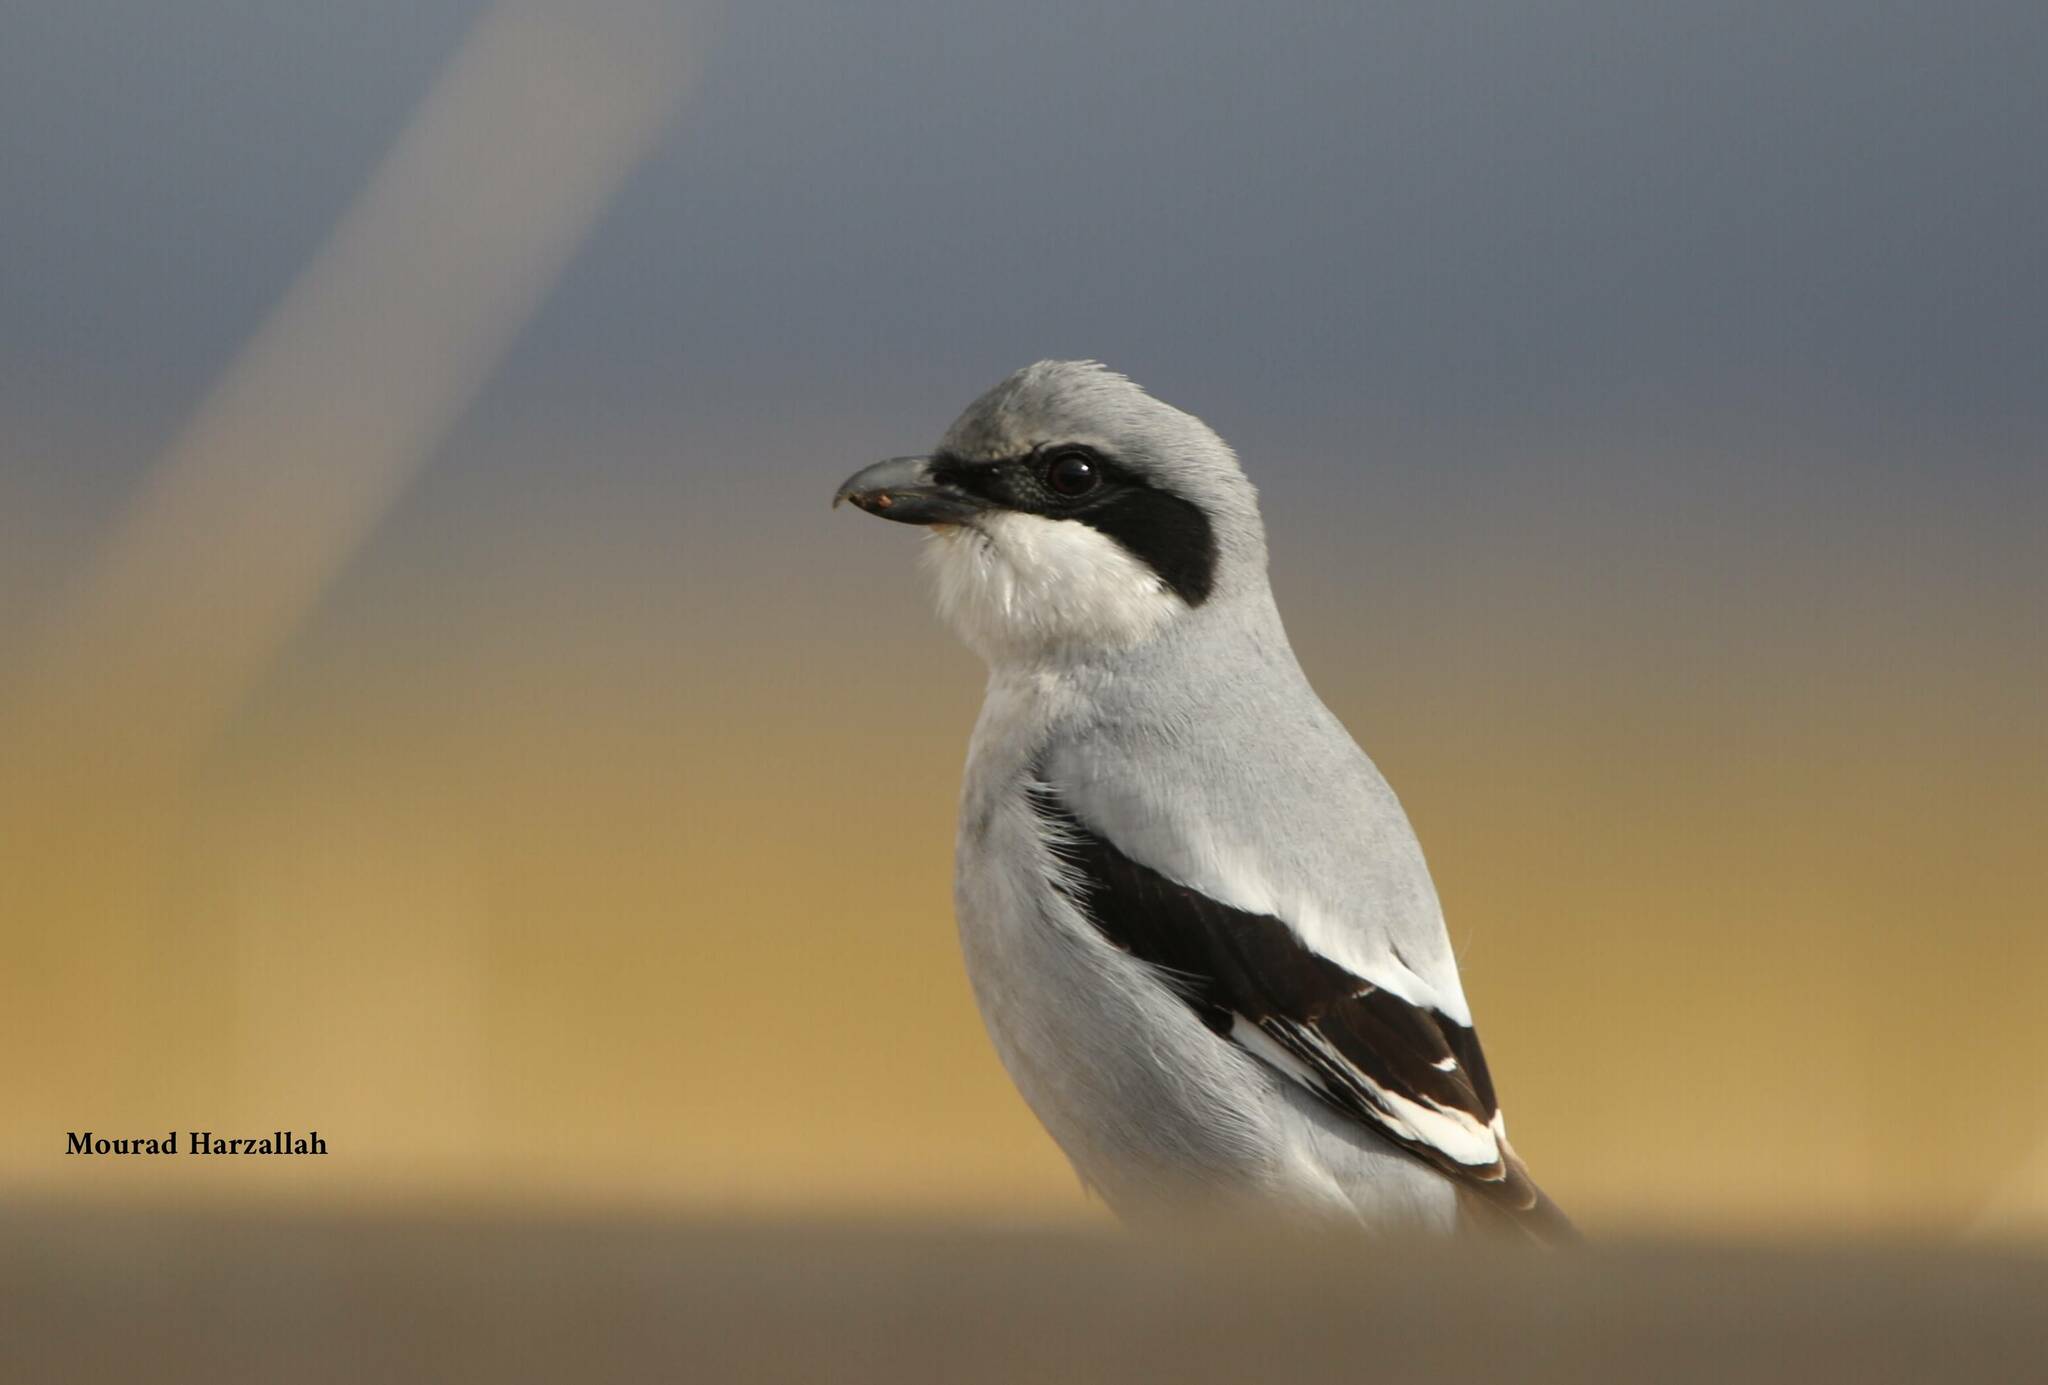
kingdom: Animalia
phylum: Chordata
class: Aves
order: Passeriformes
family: Laniidae
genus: Lanius
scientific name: Lanius excubitor
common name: Great grey shrike
